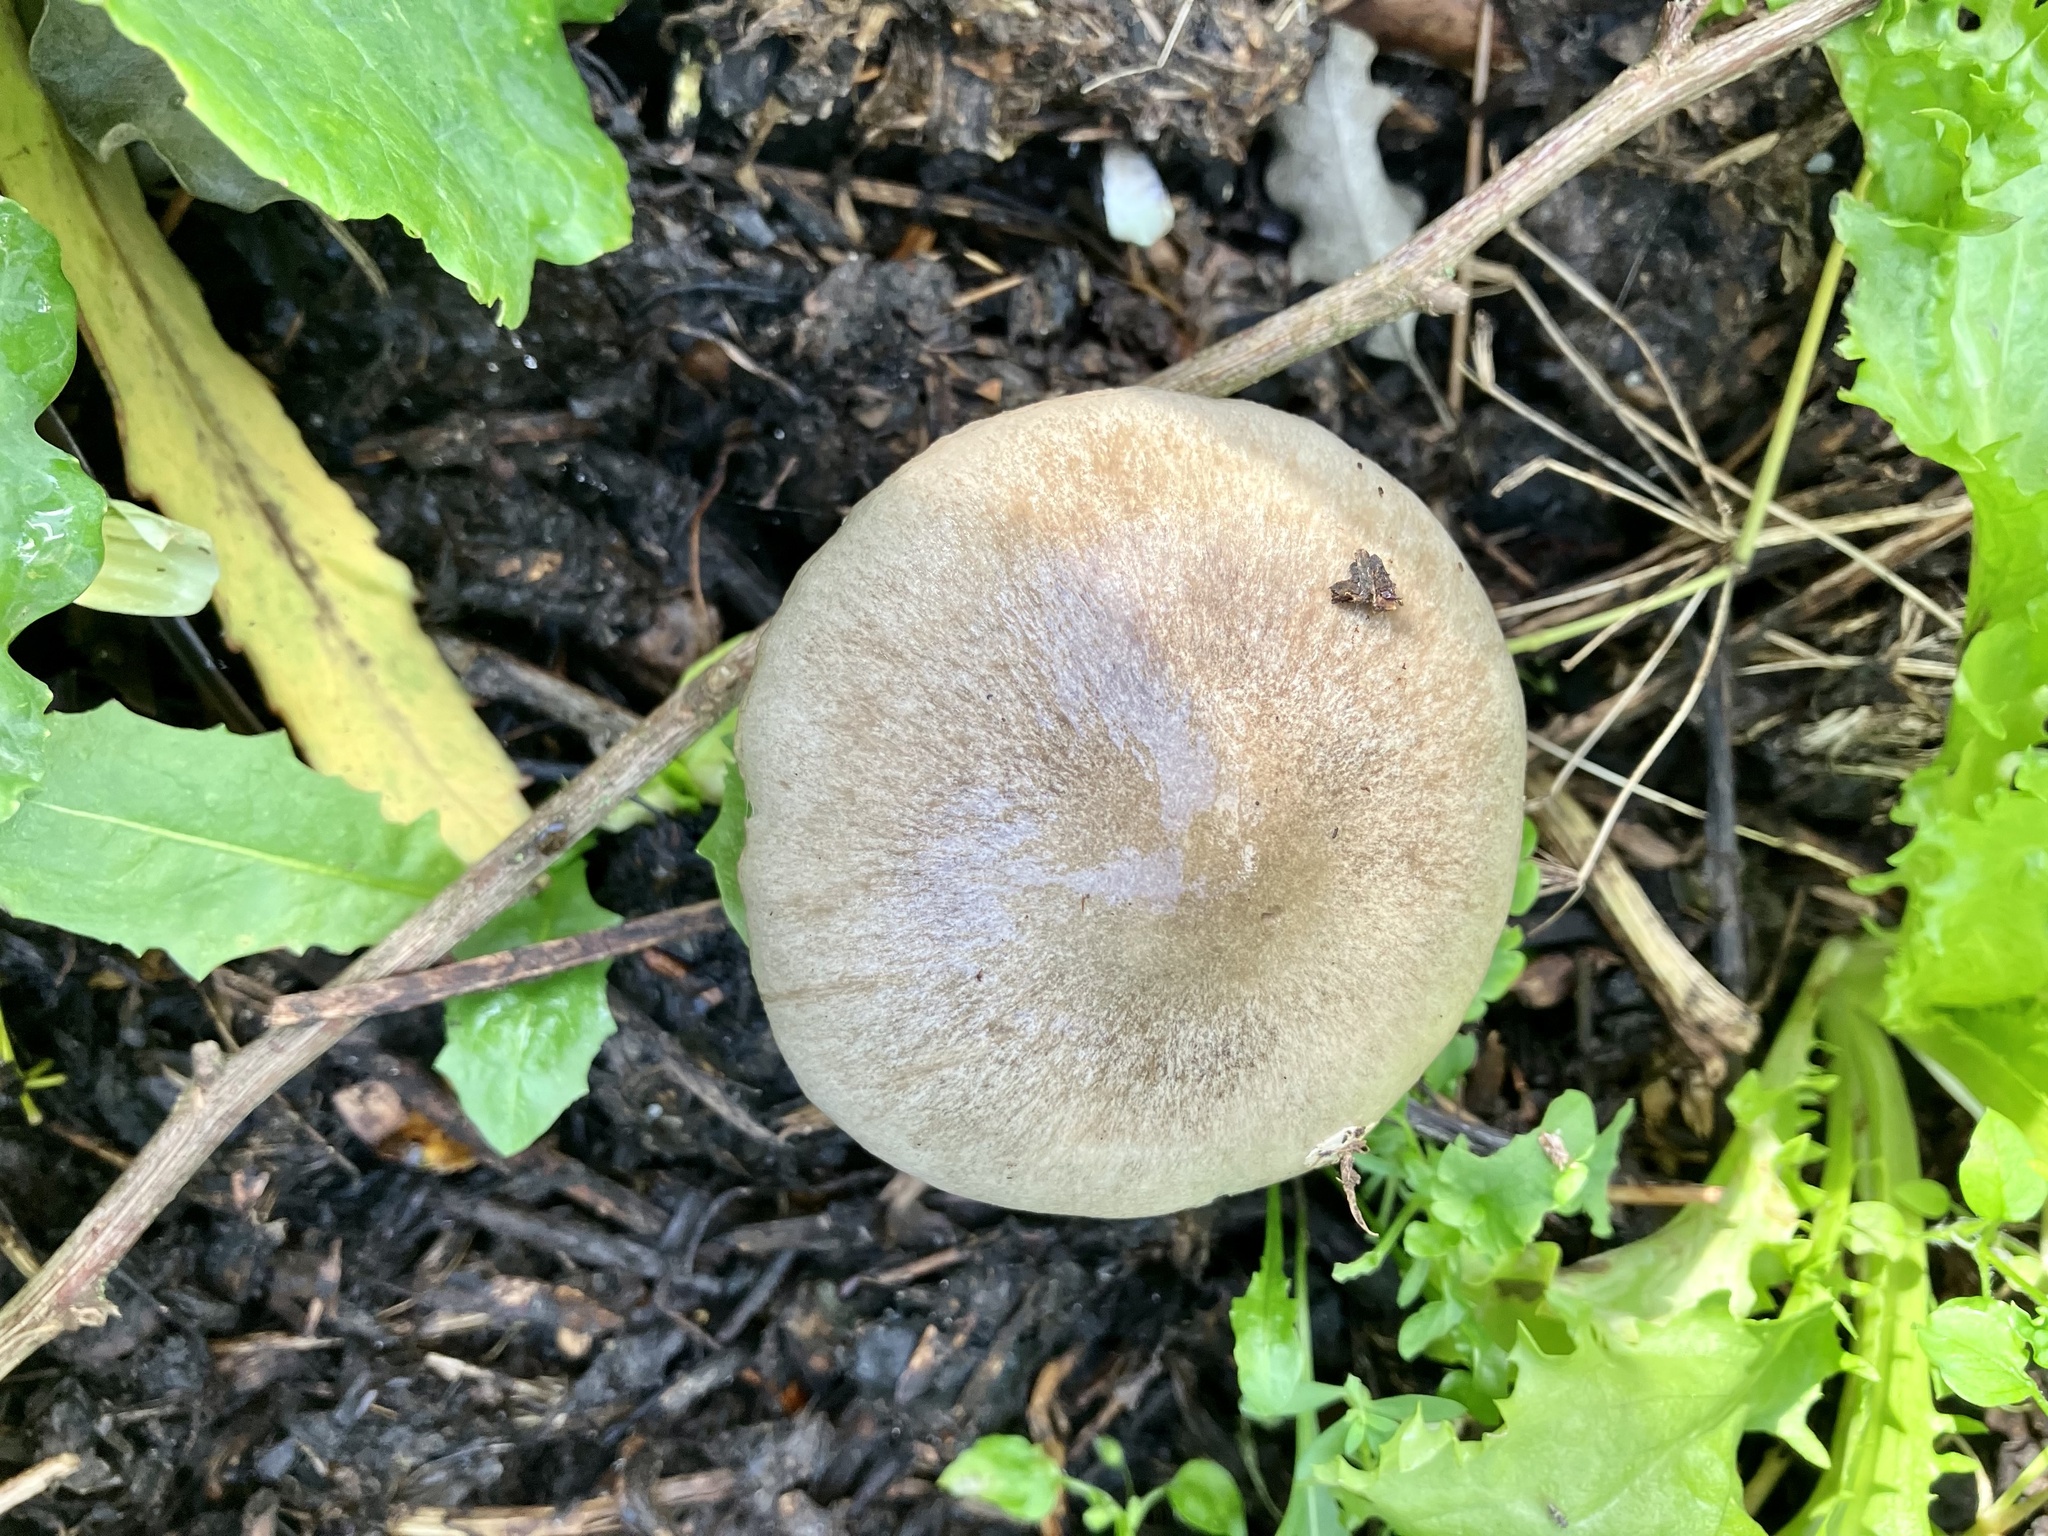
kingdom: Fungi
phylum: Basidiomycota
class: Agaricomycetes
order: Agaricales
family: Pluteaceae
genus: Volvopluteus
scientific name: Volvopluteus gloiocephalus
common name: Stubble rosegill
